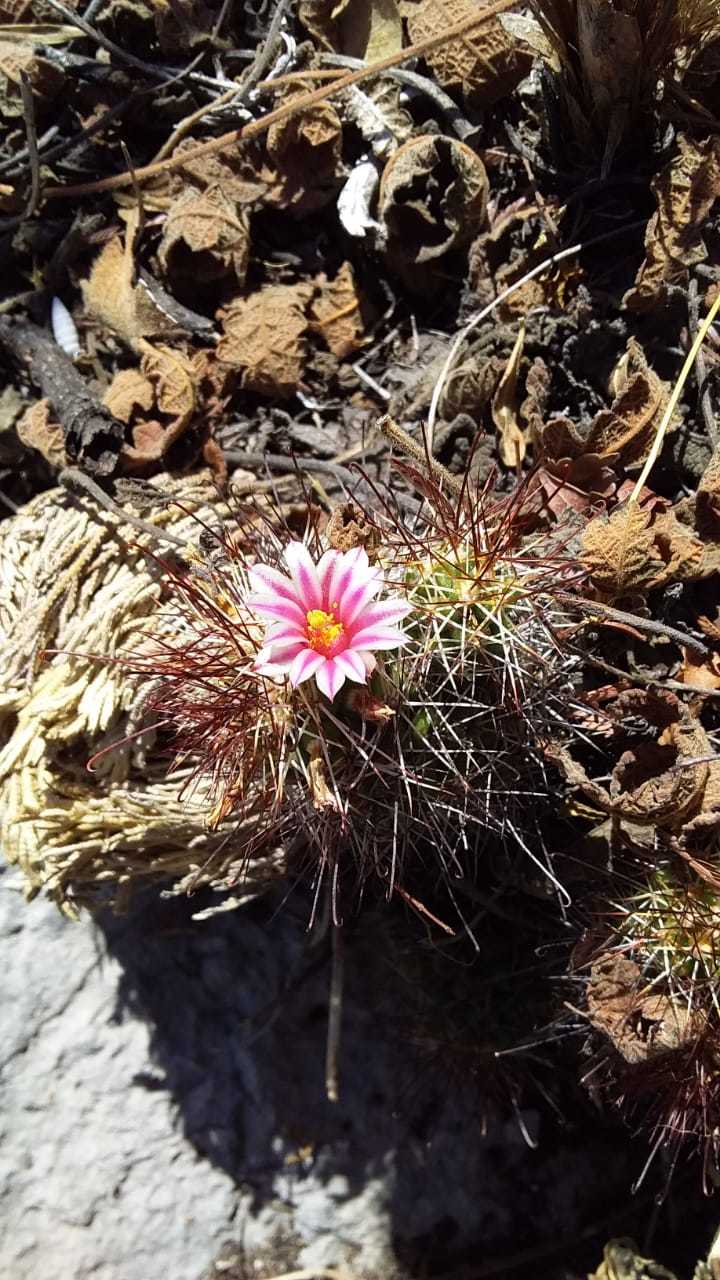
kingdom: Plantae
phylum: Tracheophyta
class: Magnoliopsida
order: Caryophyllales
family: Cactaceae
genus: Mammillaria
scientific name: Mammillaria tonalensis
